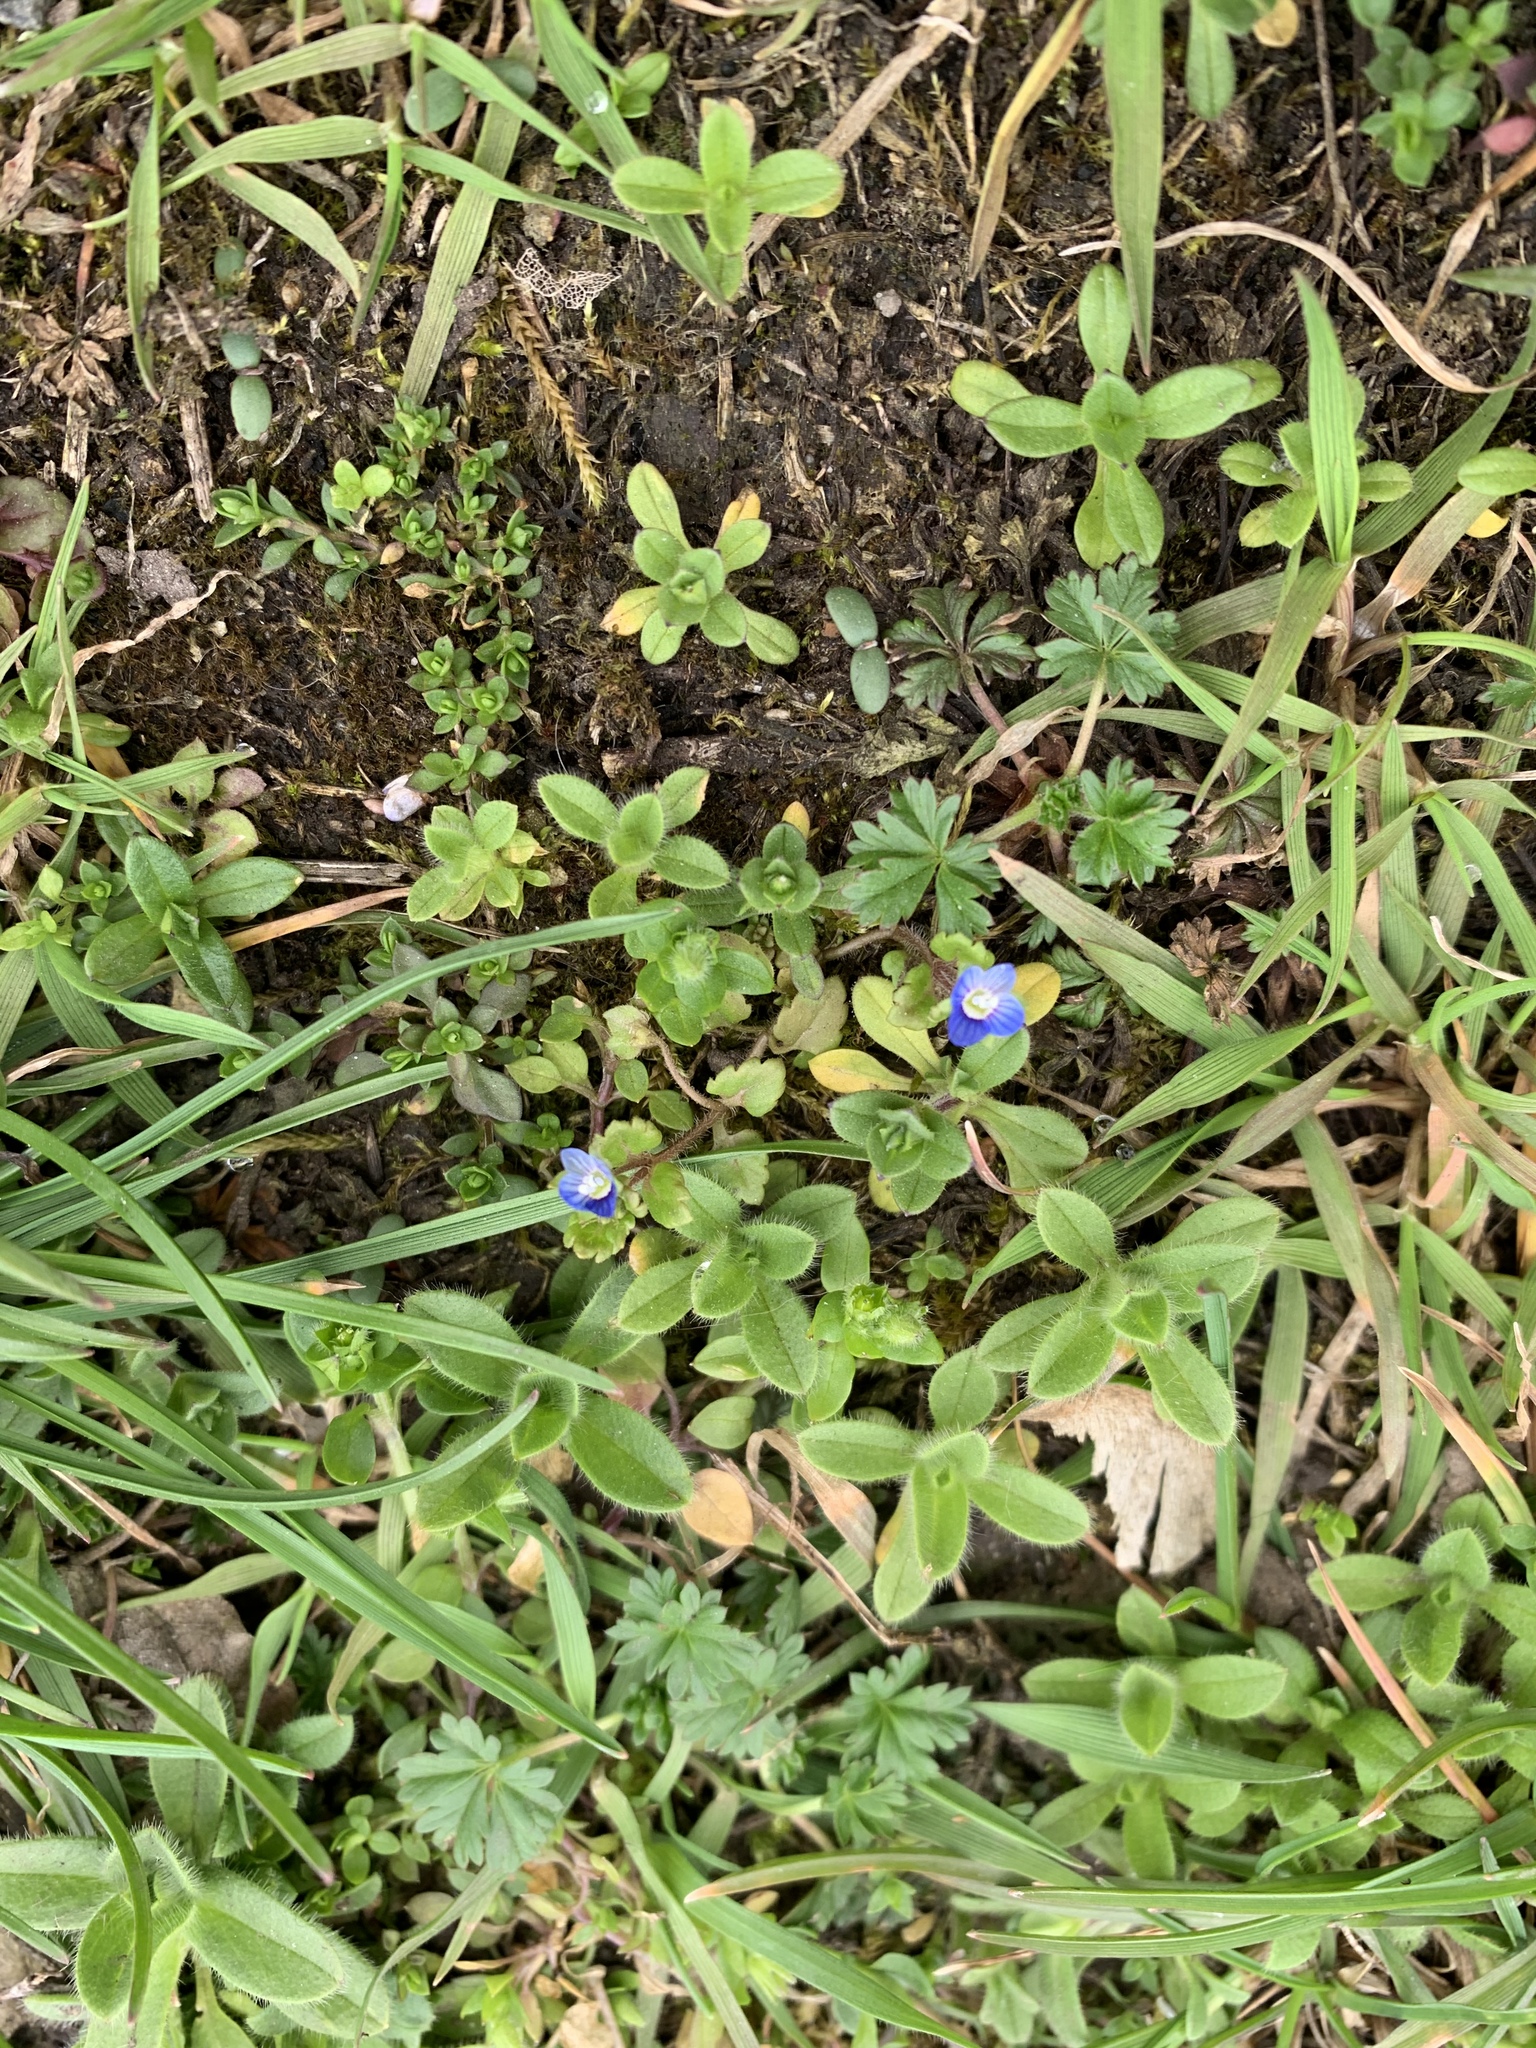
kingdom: Plantae
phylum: Tracheophyta
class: Magnoliopsida
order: Lamiales
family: Plantaginaceae
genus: Veronica
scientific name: Veronica polita
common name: Grey field-speedwell
